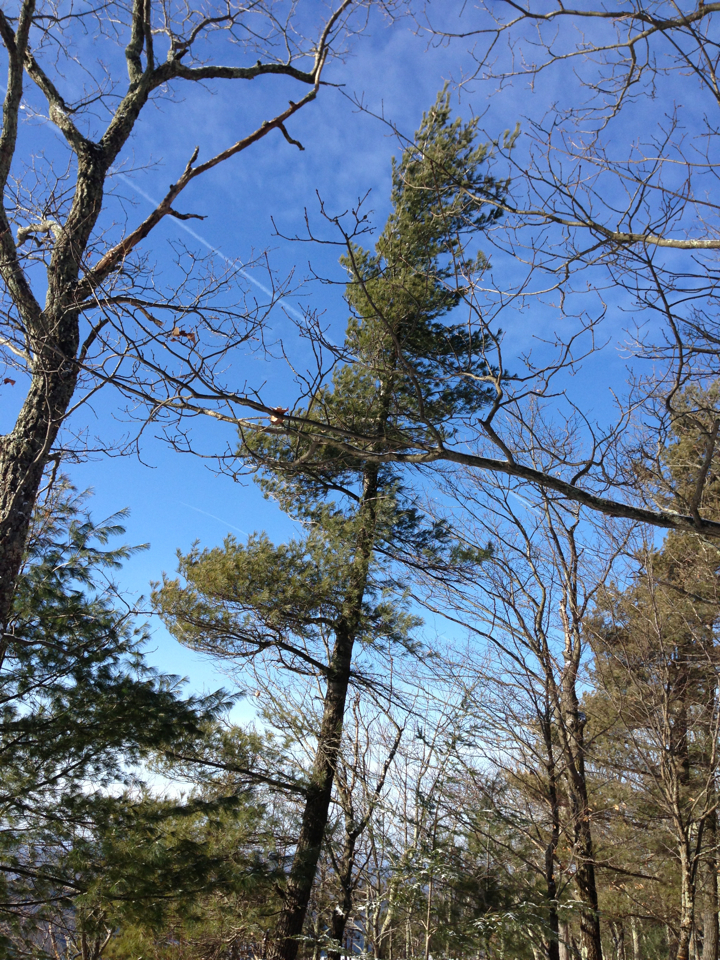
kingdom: Plantae
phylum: Tracheophyta
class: Pinopsida
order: Pinales
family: Pinaceae
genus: Pinus
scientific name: Pinus strobus
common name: Weymouth pine
